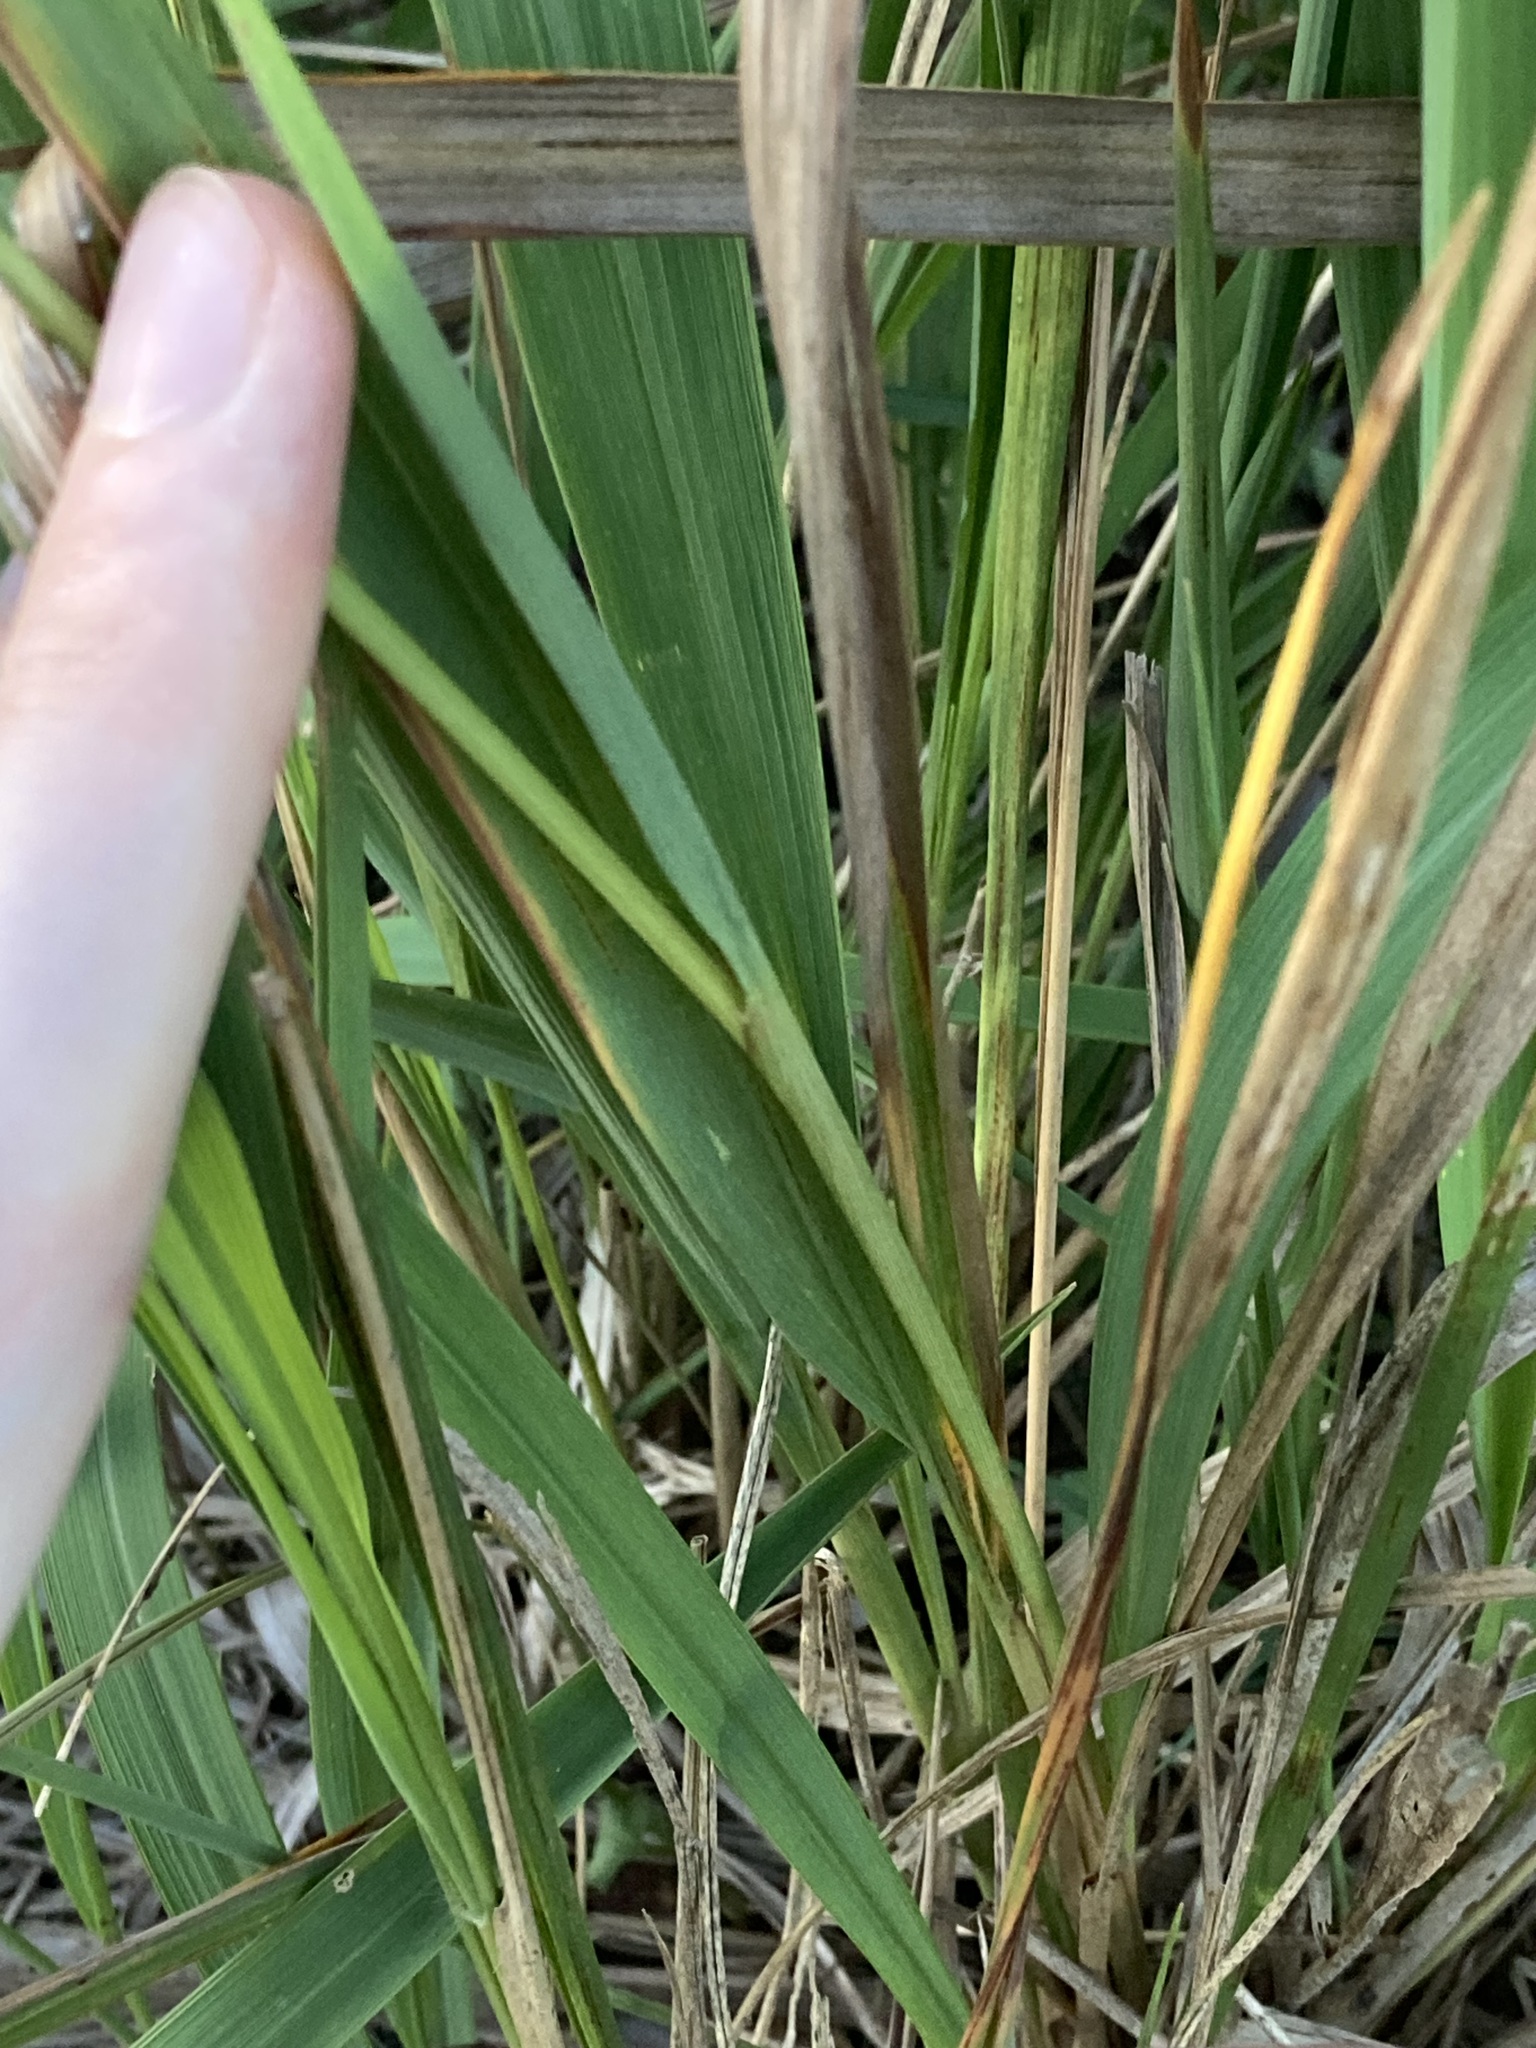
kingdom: Plantae
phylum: Tracheophyta
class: Liliopsida
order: Poales
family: Poaceae
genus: Imperata
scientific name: Imperata cylindrica
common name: Cogongrass
